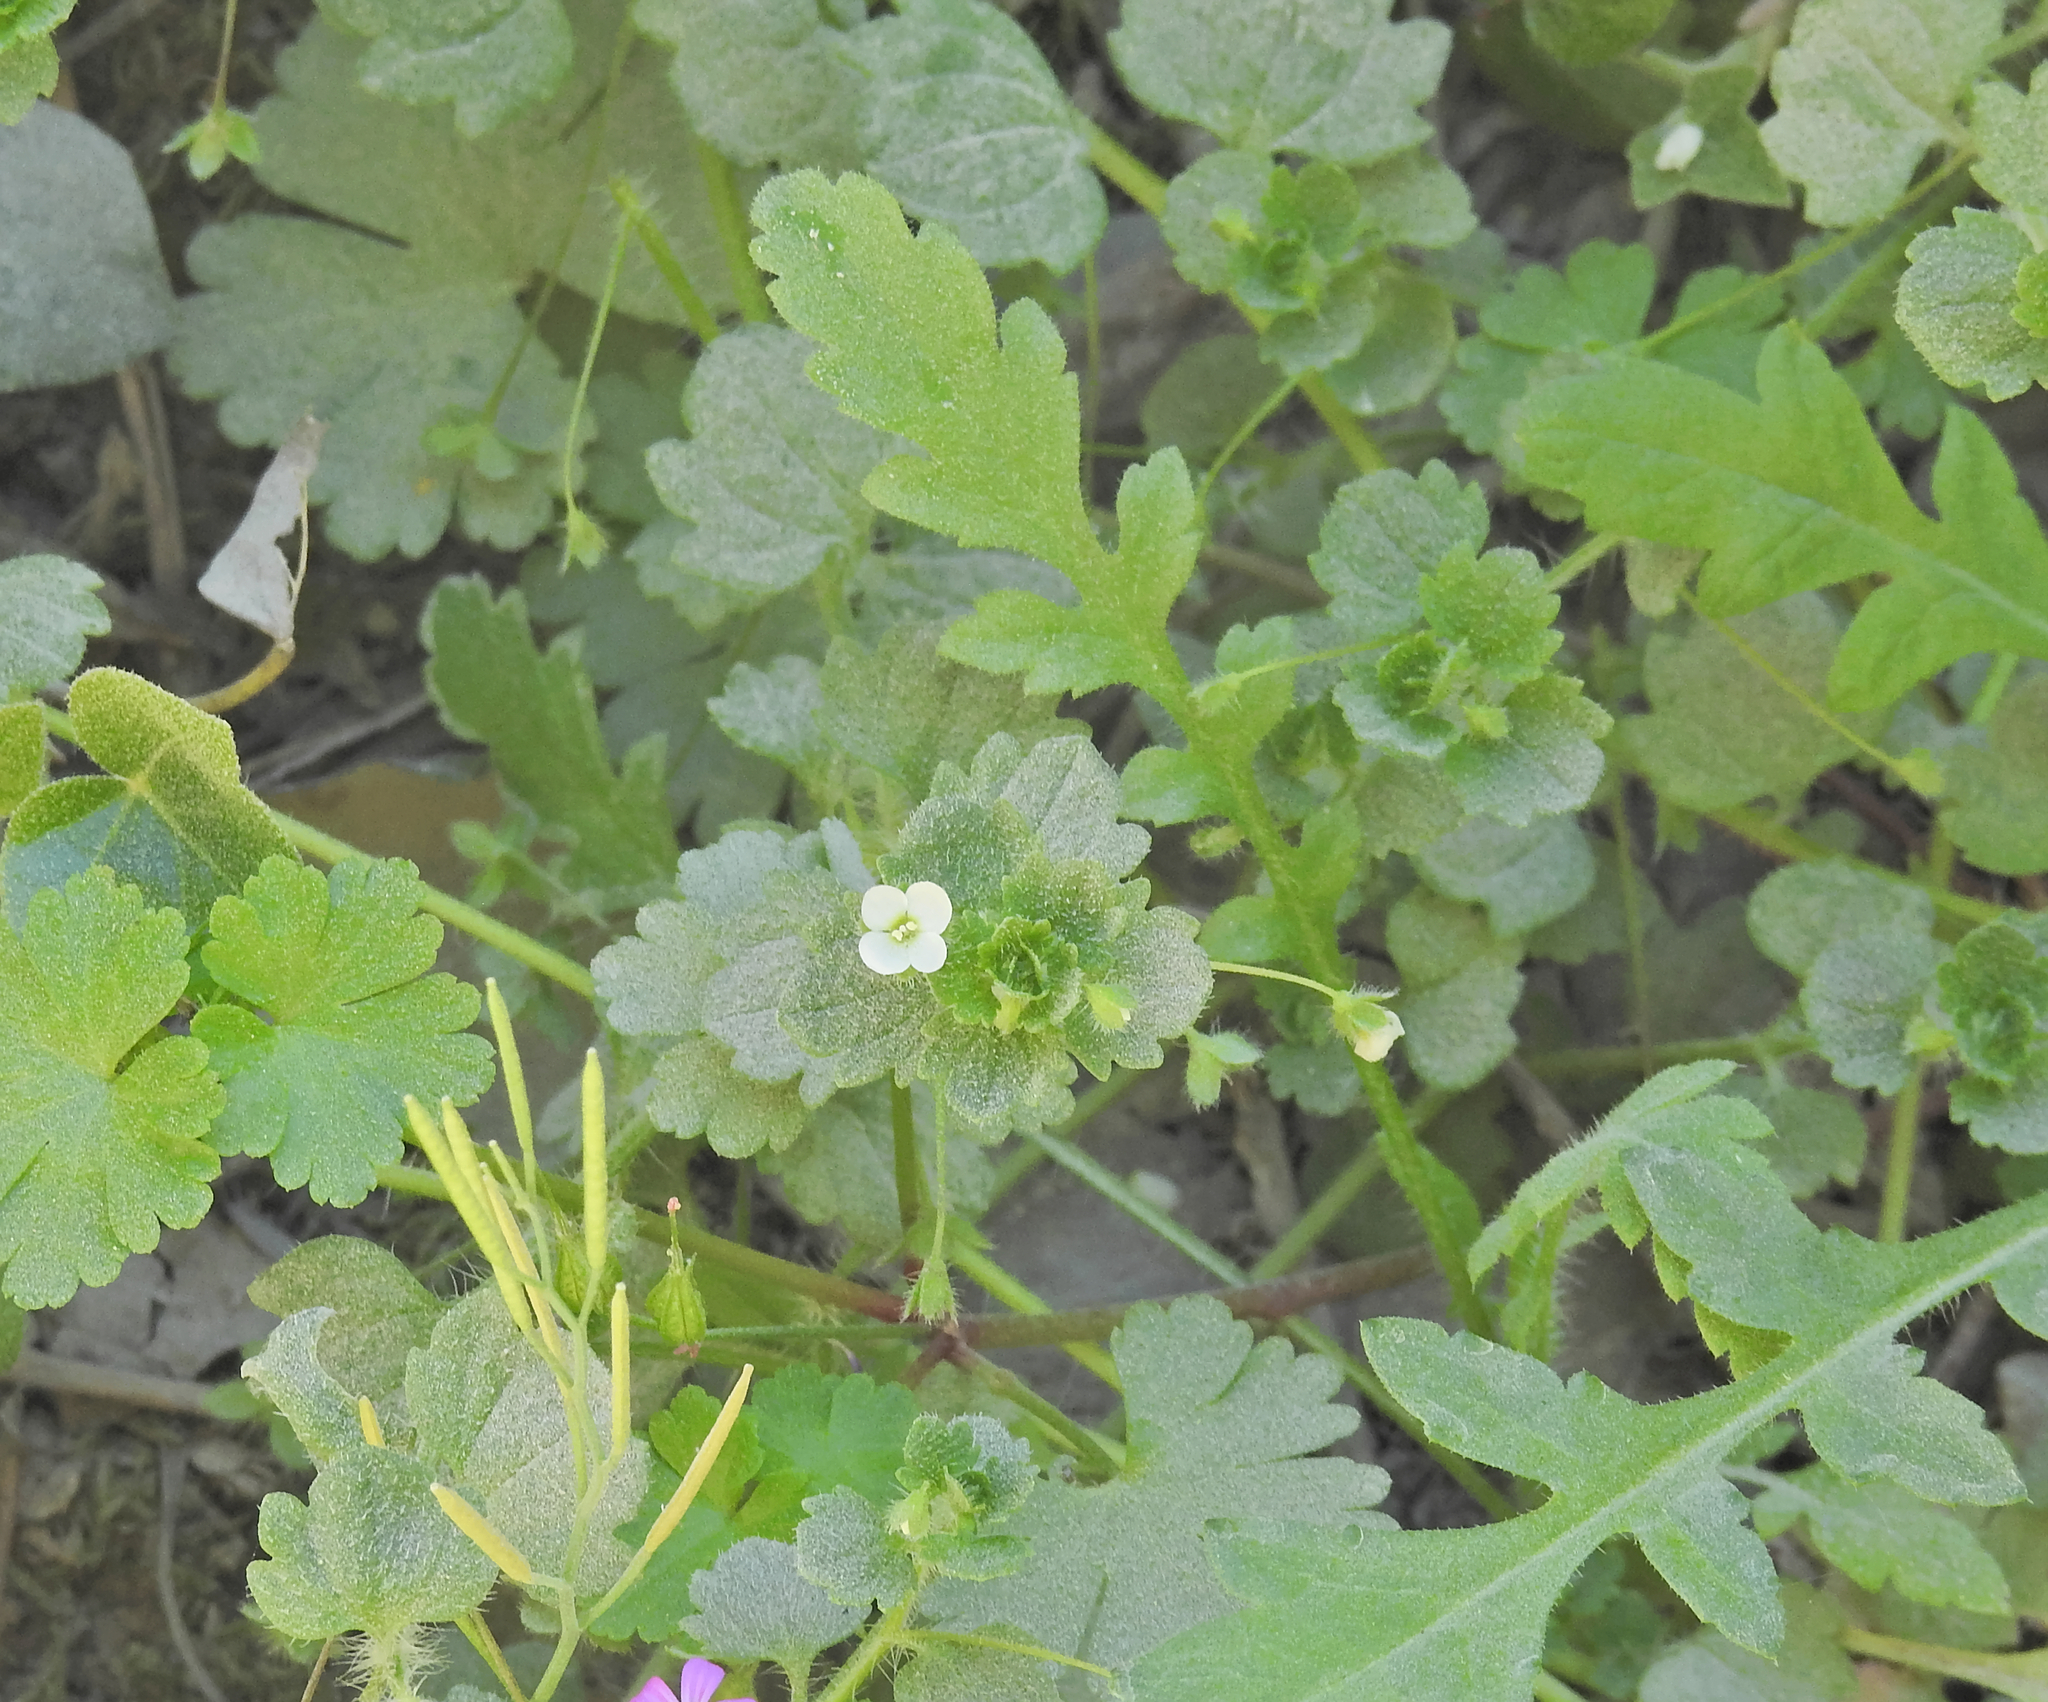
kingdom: Plantae
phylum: Tracheophyta
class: Magnoliopsida
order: Lamiales
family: Plantaginaceae
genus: Veronica
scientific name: Veronica cymbalaria
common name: Pale speedwell
